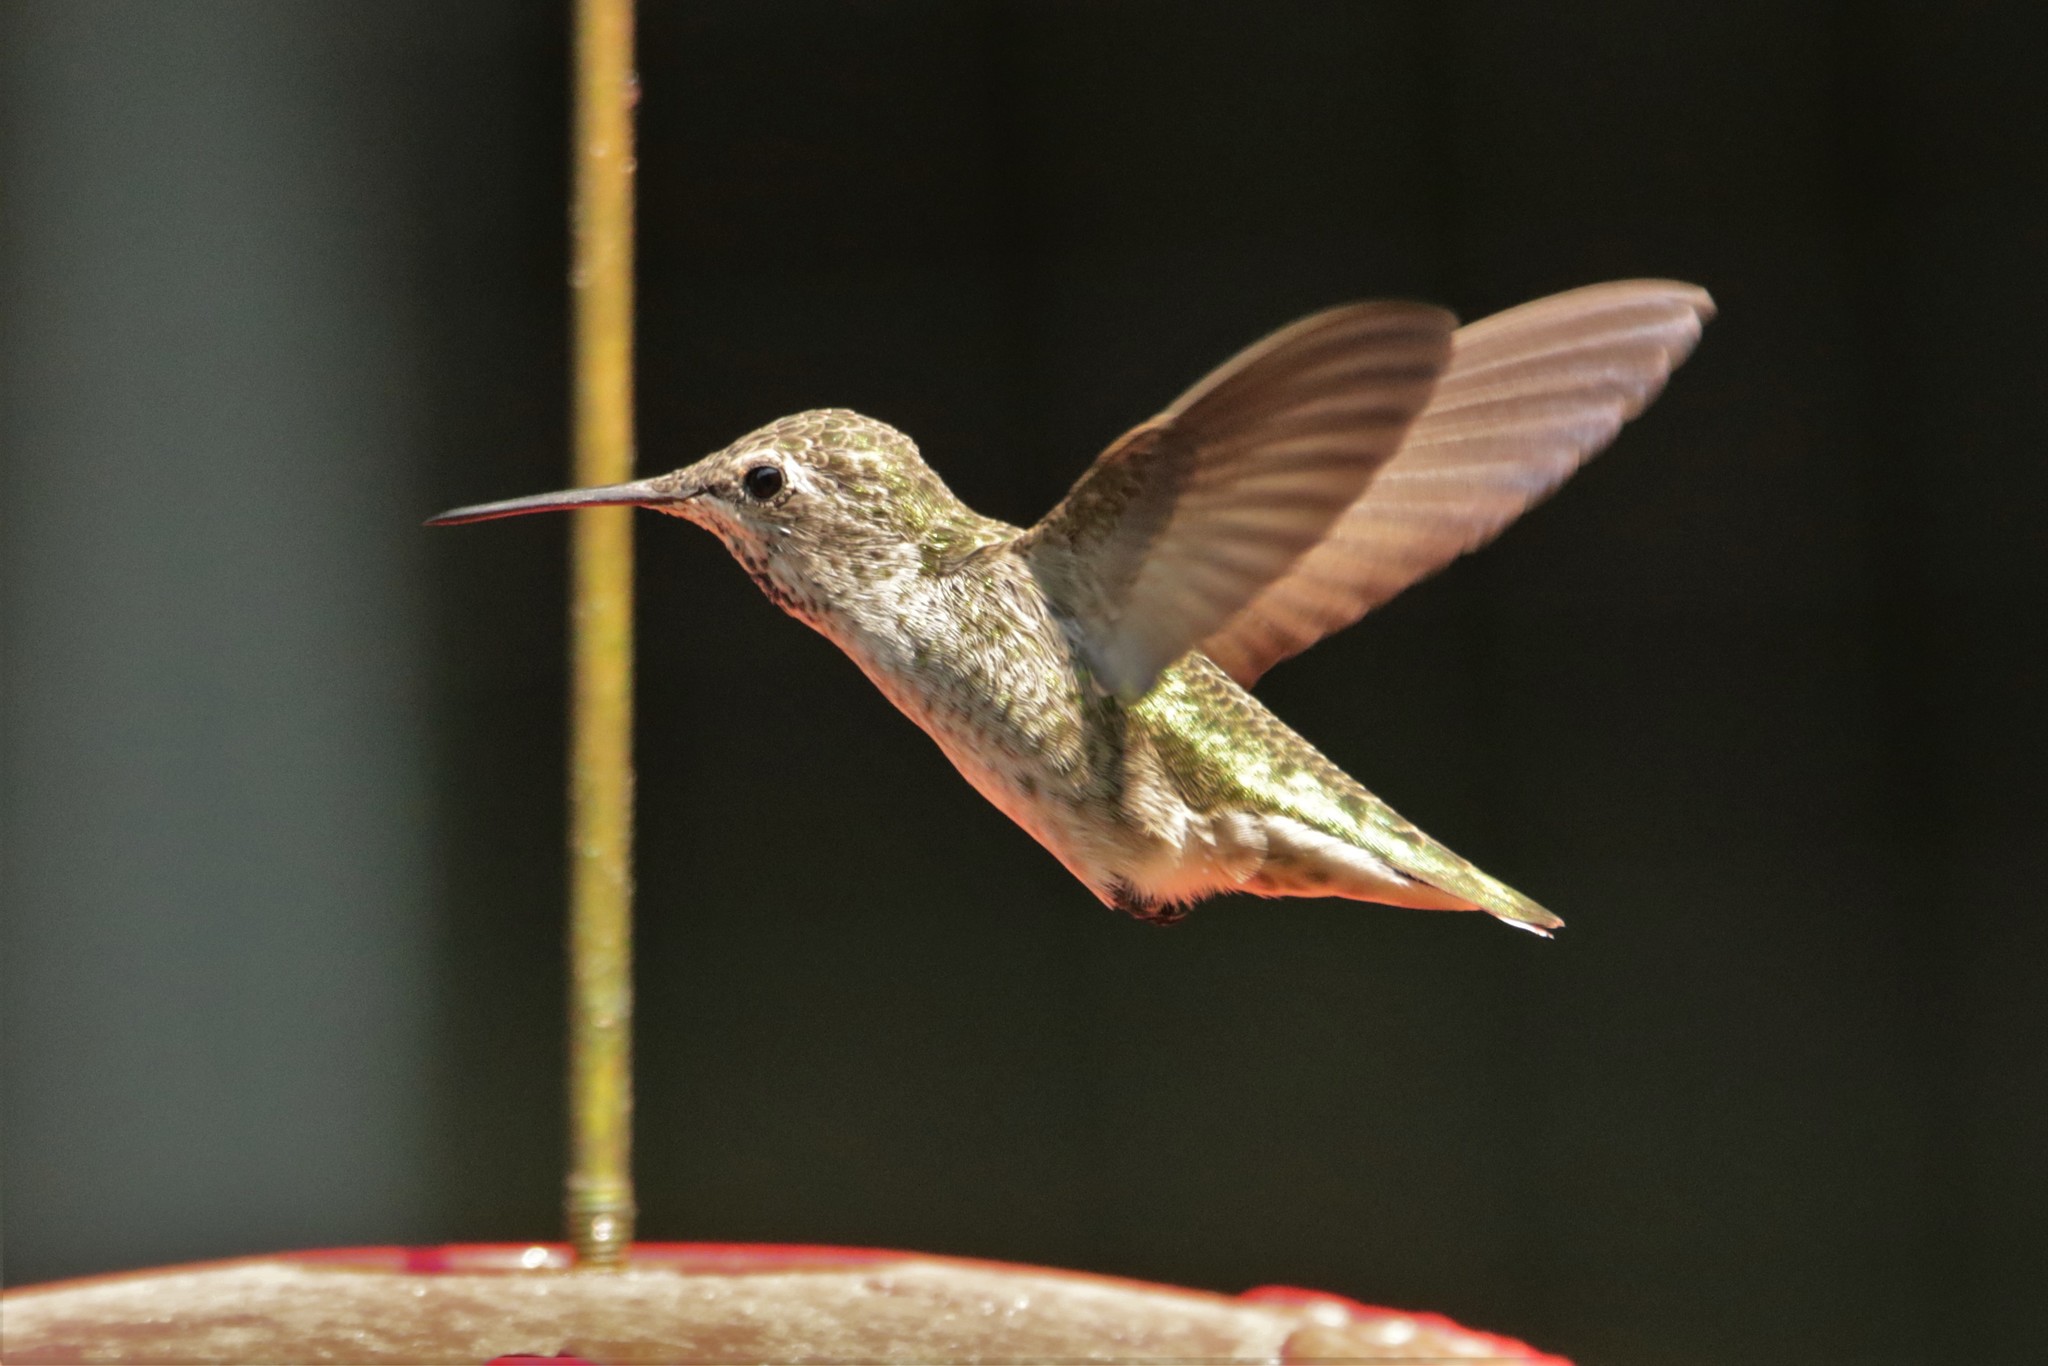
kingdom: Animalia
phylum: Chordata
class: Aves
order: Apodiformes
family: Trochilidae
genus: Calypte
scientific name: Calypte anna
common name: Anna's hummingbird
